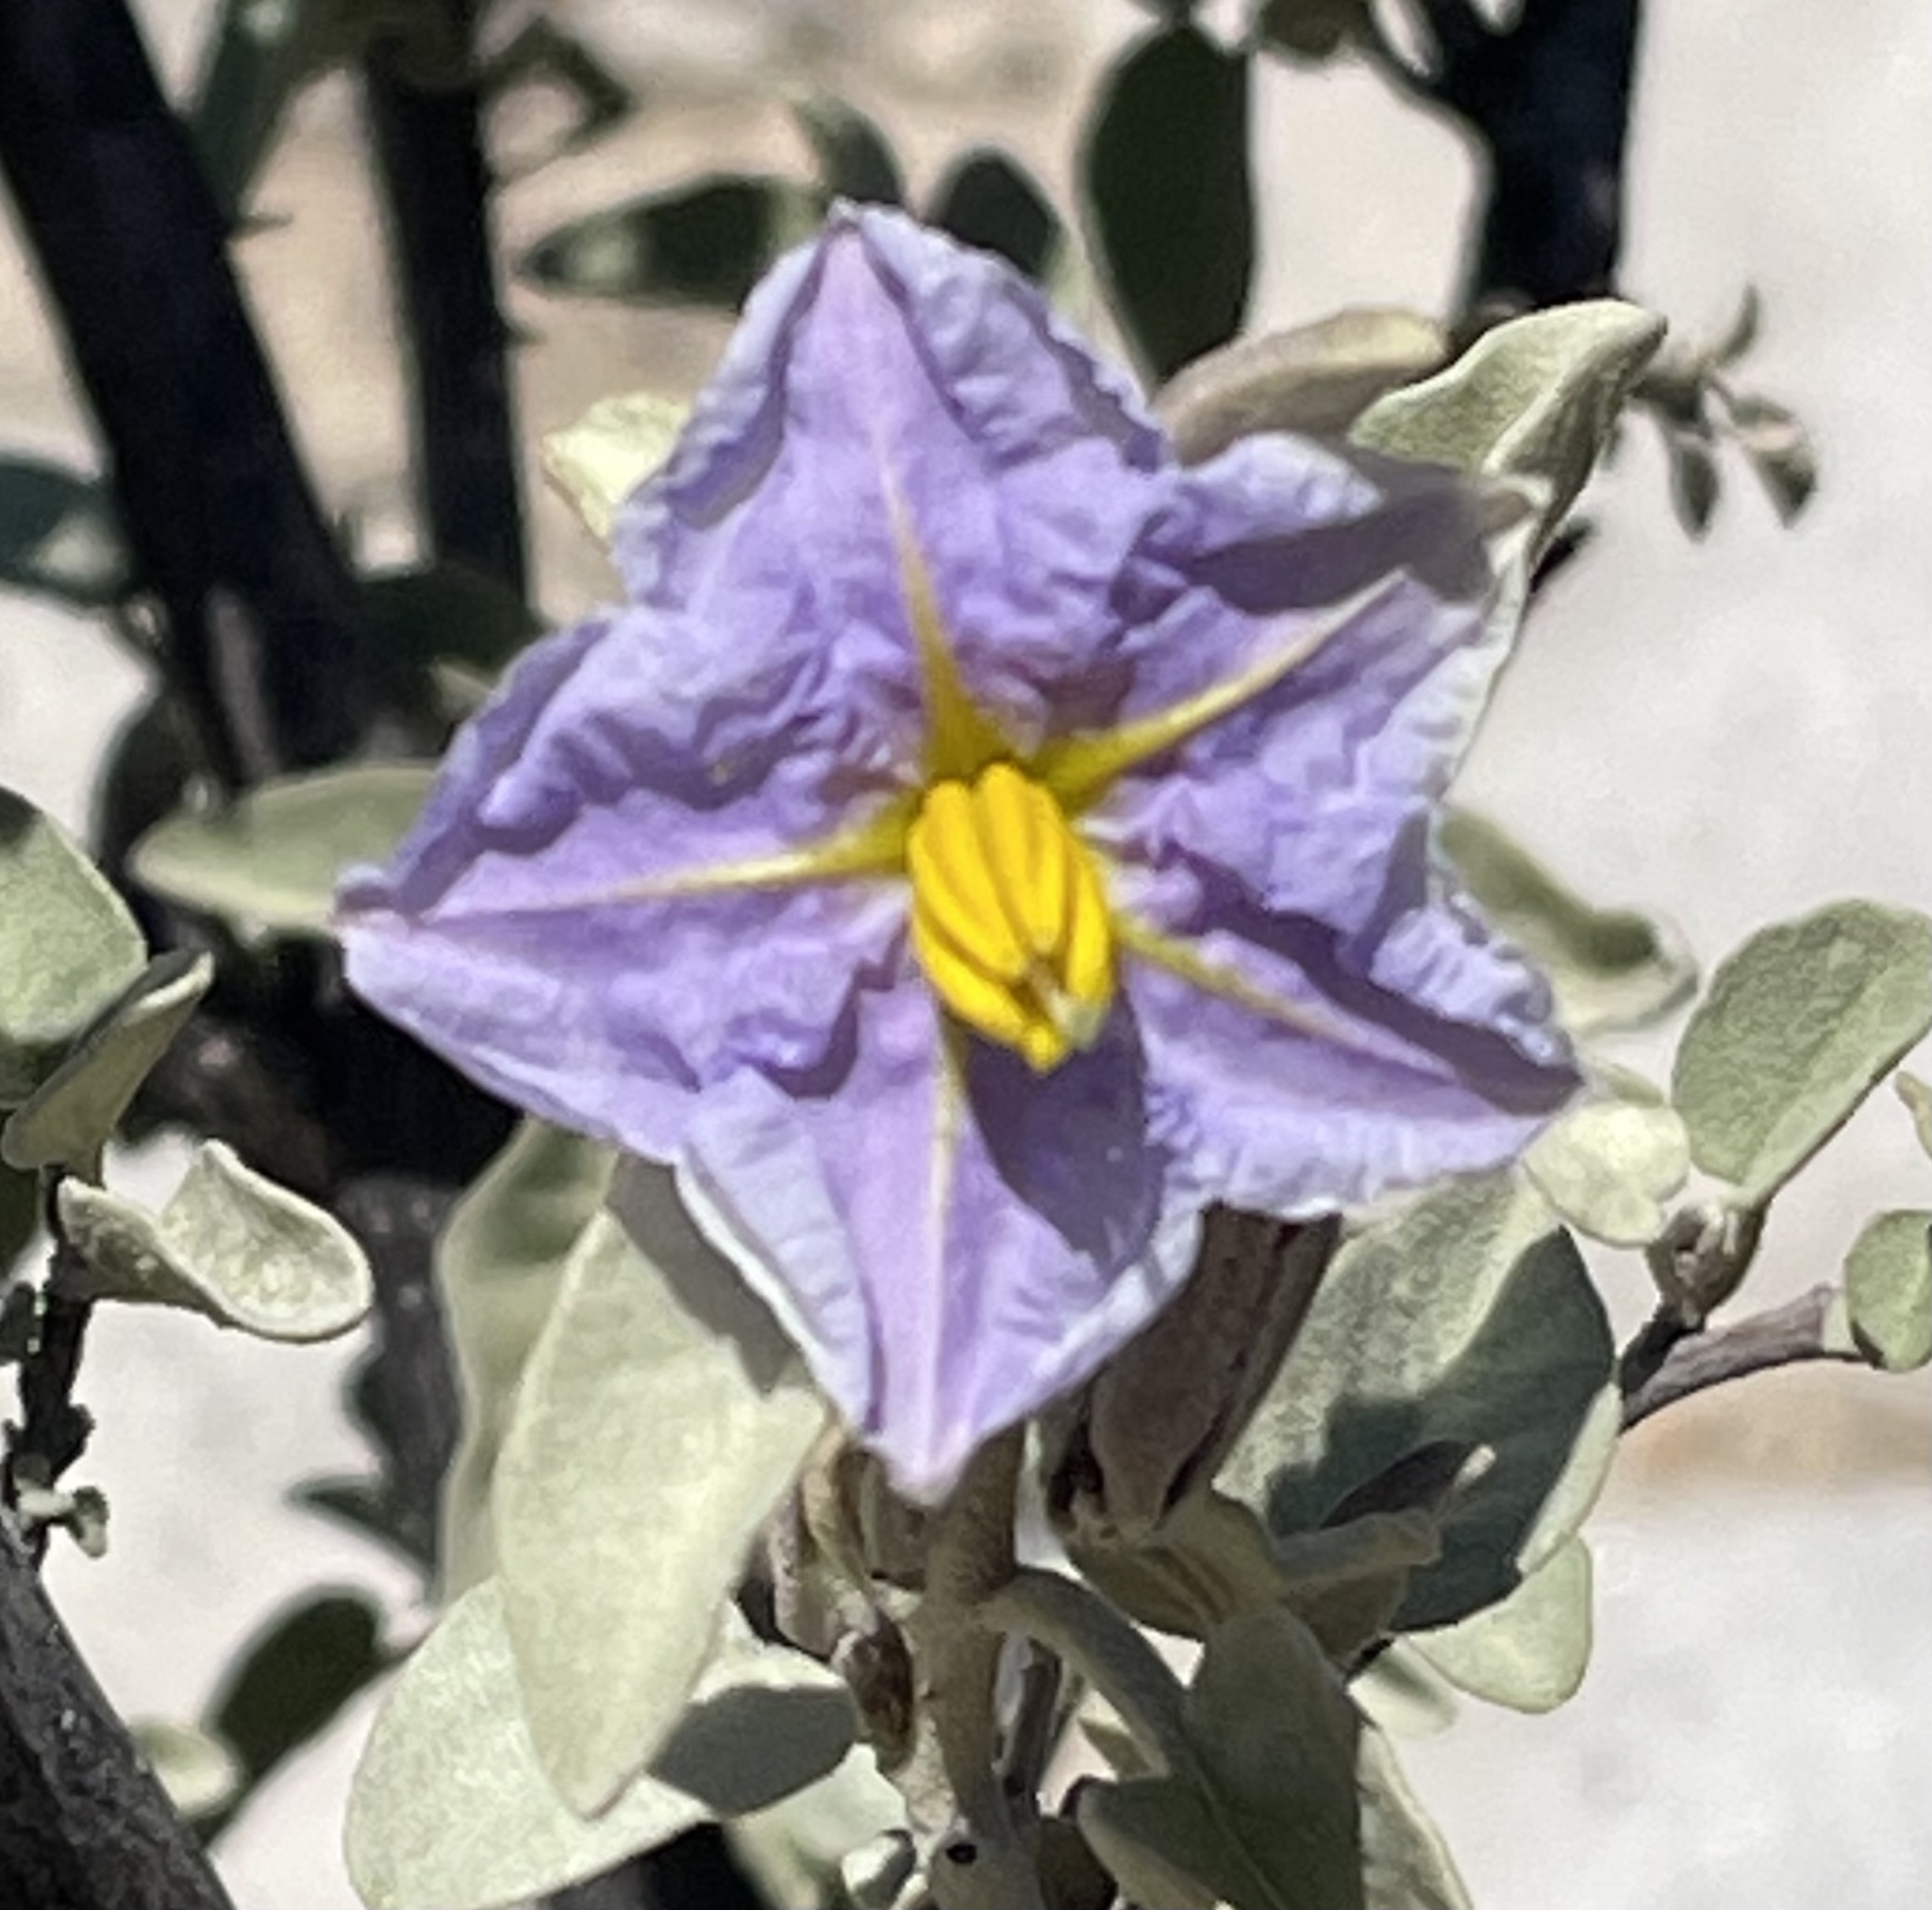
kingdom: Plantae
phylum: Tracheophyta
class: Magnoliopsida
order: Solanales
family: Solanaceae
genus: Solanum
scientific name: Solanum hindsianum
